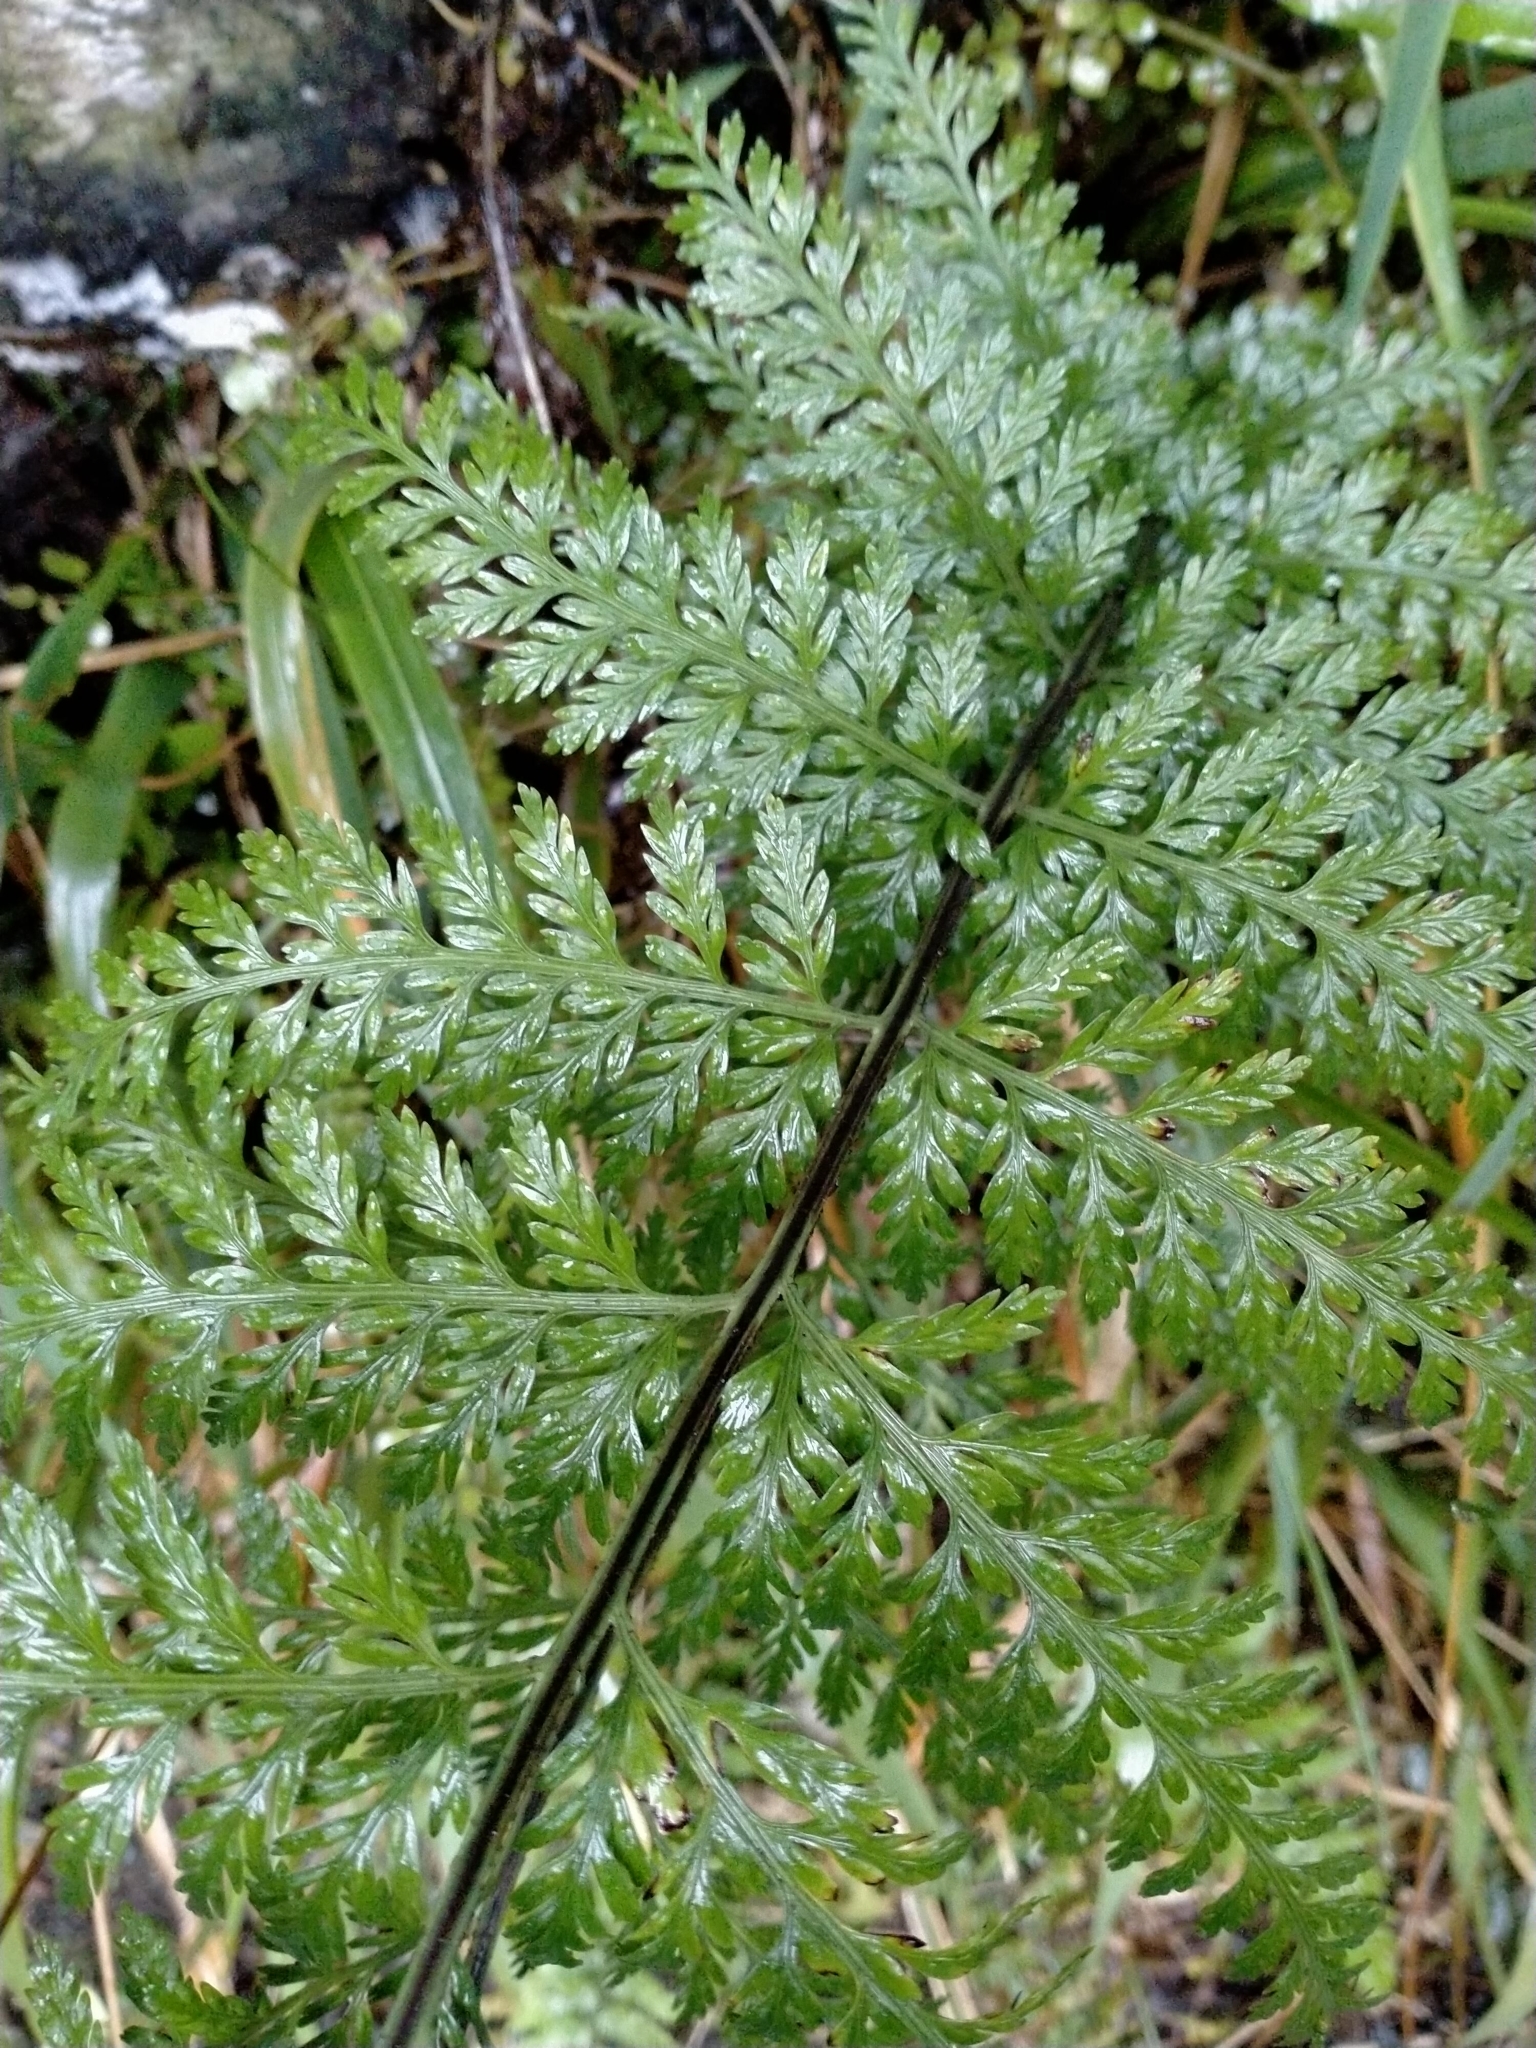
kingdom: Plantae
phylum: Tracheophyta
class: Polypodiopsida
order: Polypodiales
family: Aspleniaceae
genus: Asplenium
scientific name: Asplenium
